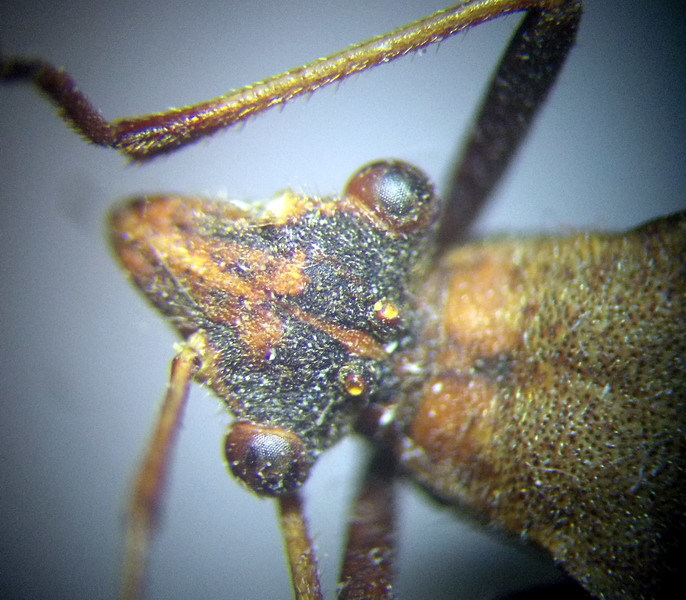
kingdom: Animalia
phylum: Arthropoda
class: Insecta
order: Hemiptera
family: Alydidae
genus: Megalotomus
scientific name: Megalotomus ornaticeps
